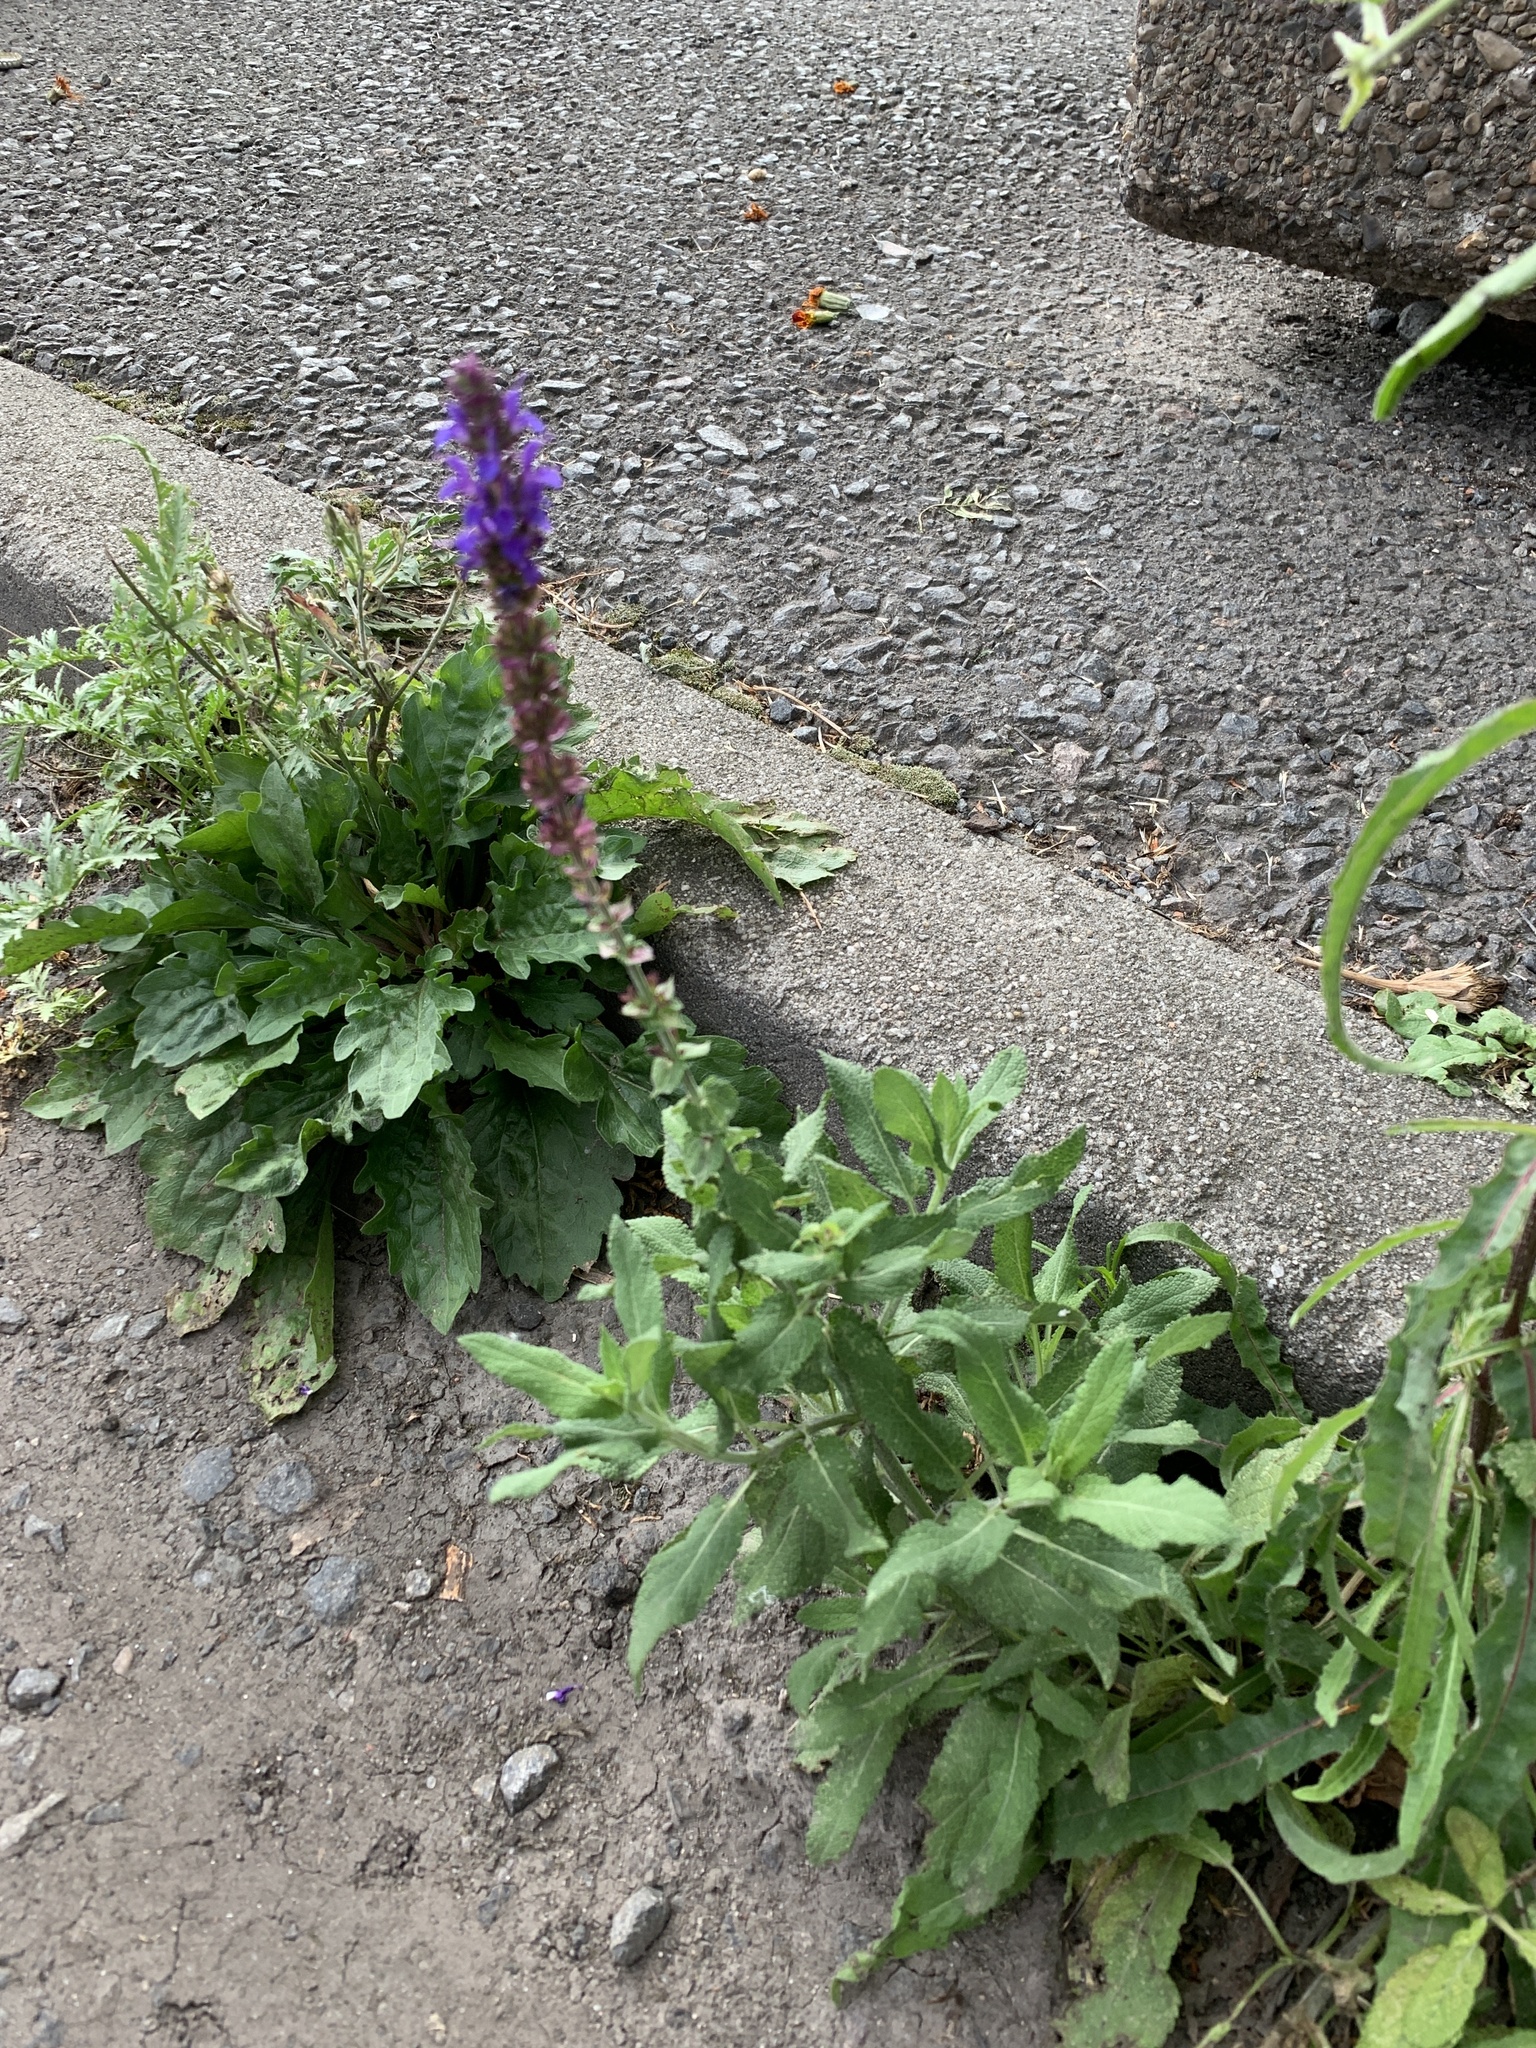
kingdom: Plantae
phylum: Tracheophyta
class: Magnoliopsida
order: Lamiales
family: Lamiaceae
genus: Salvia
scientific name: Salvia nemorosa
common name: Balkan clary
